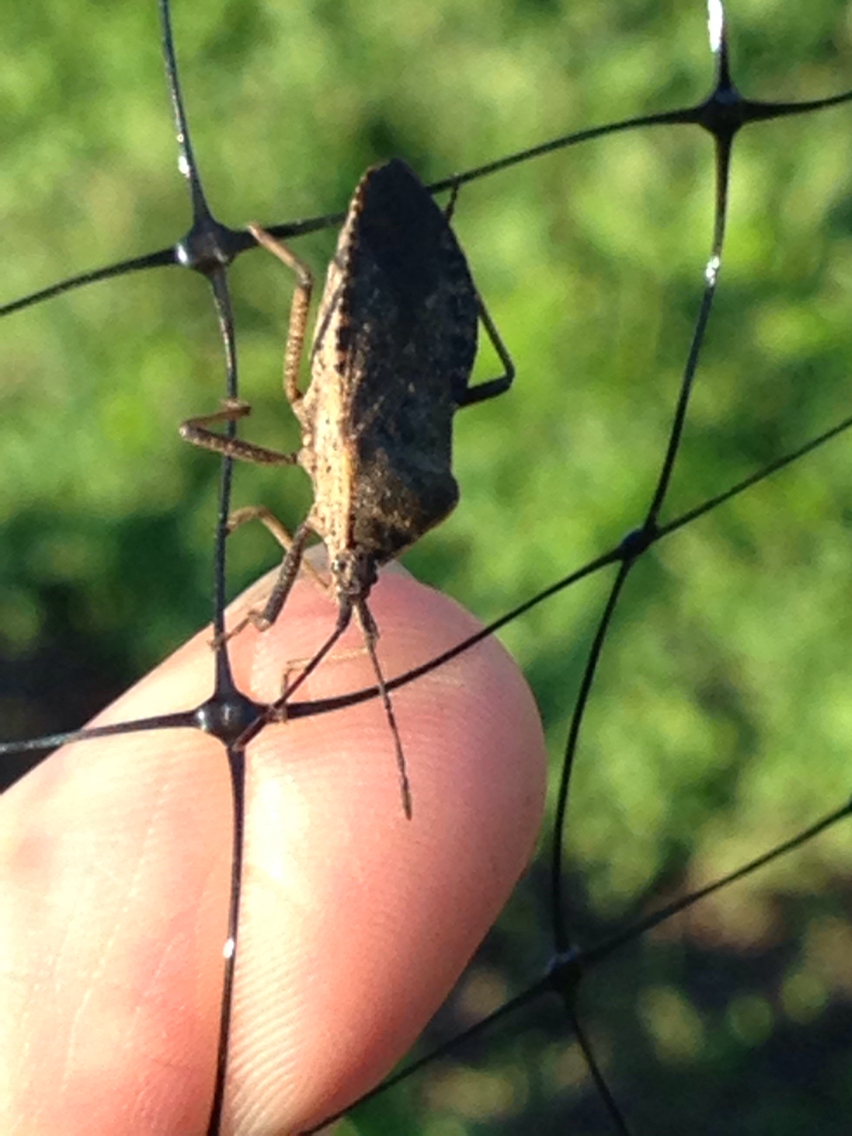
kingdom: Animalia
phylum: Arthropoda
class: Insecta
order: Hemiptera
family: Coreidae
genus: Anasa
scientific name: Anasa tristis
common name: Squash bug
